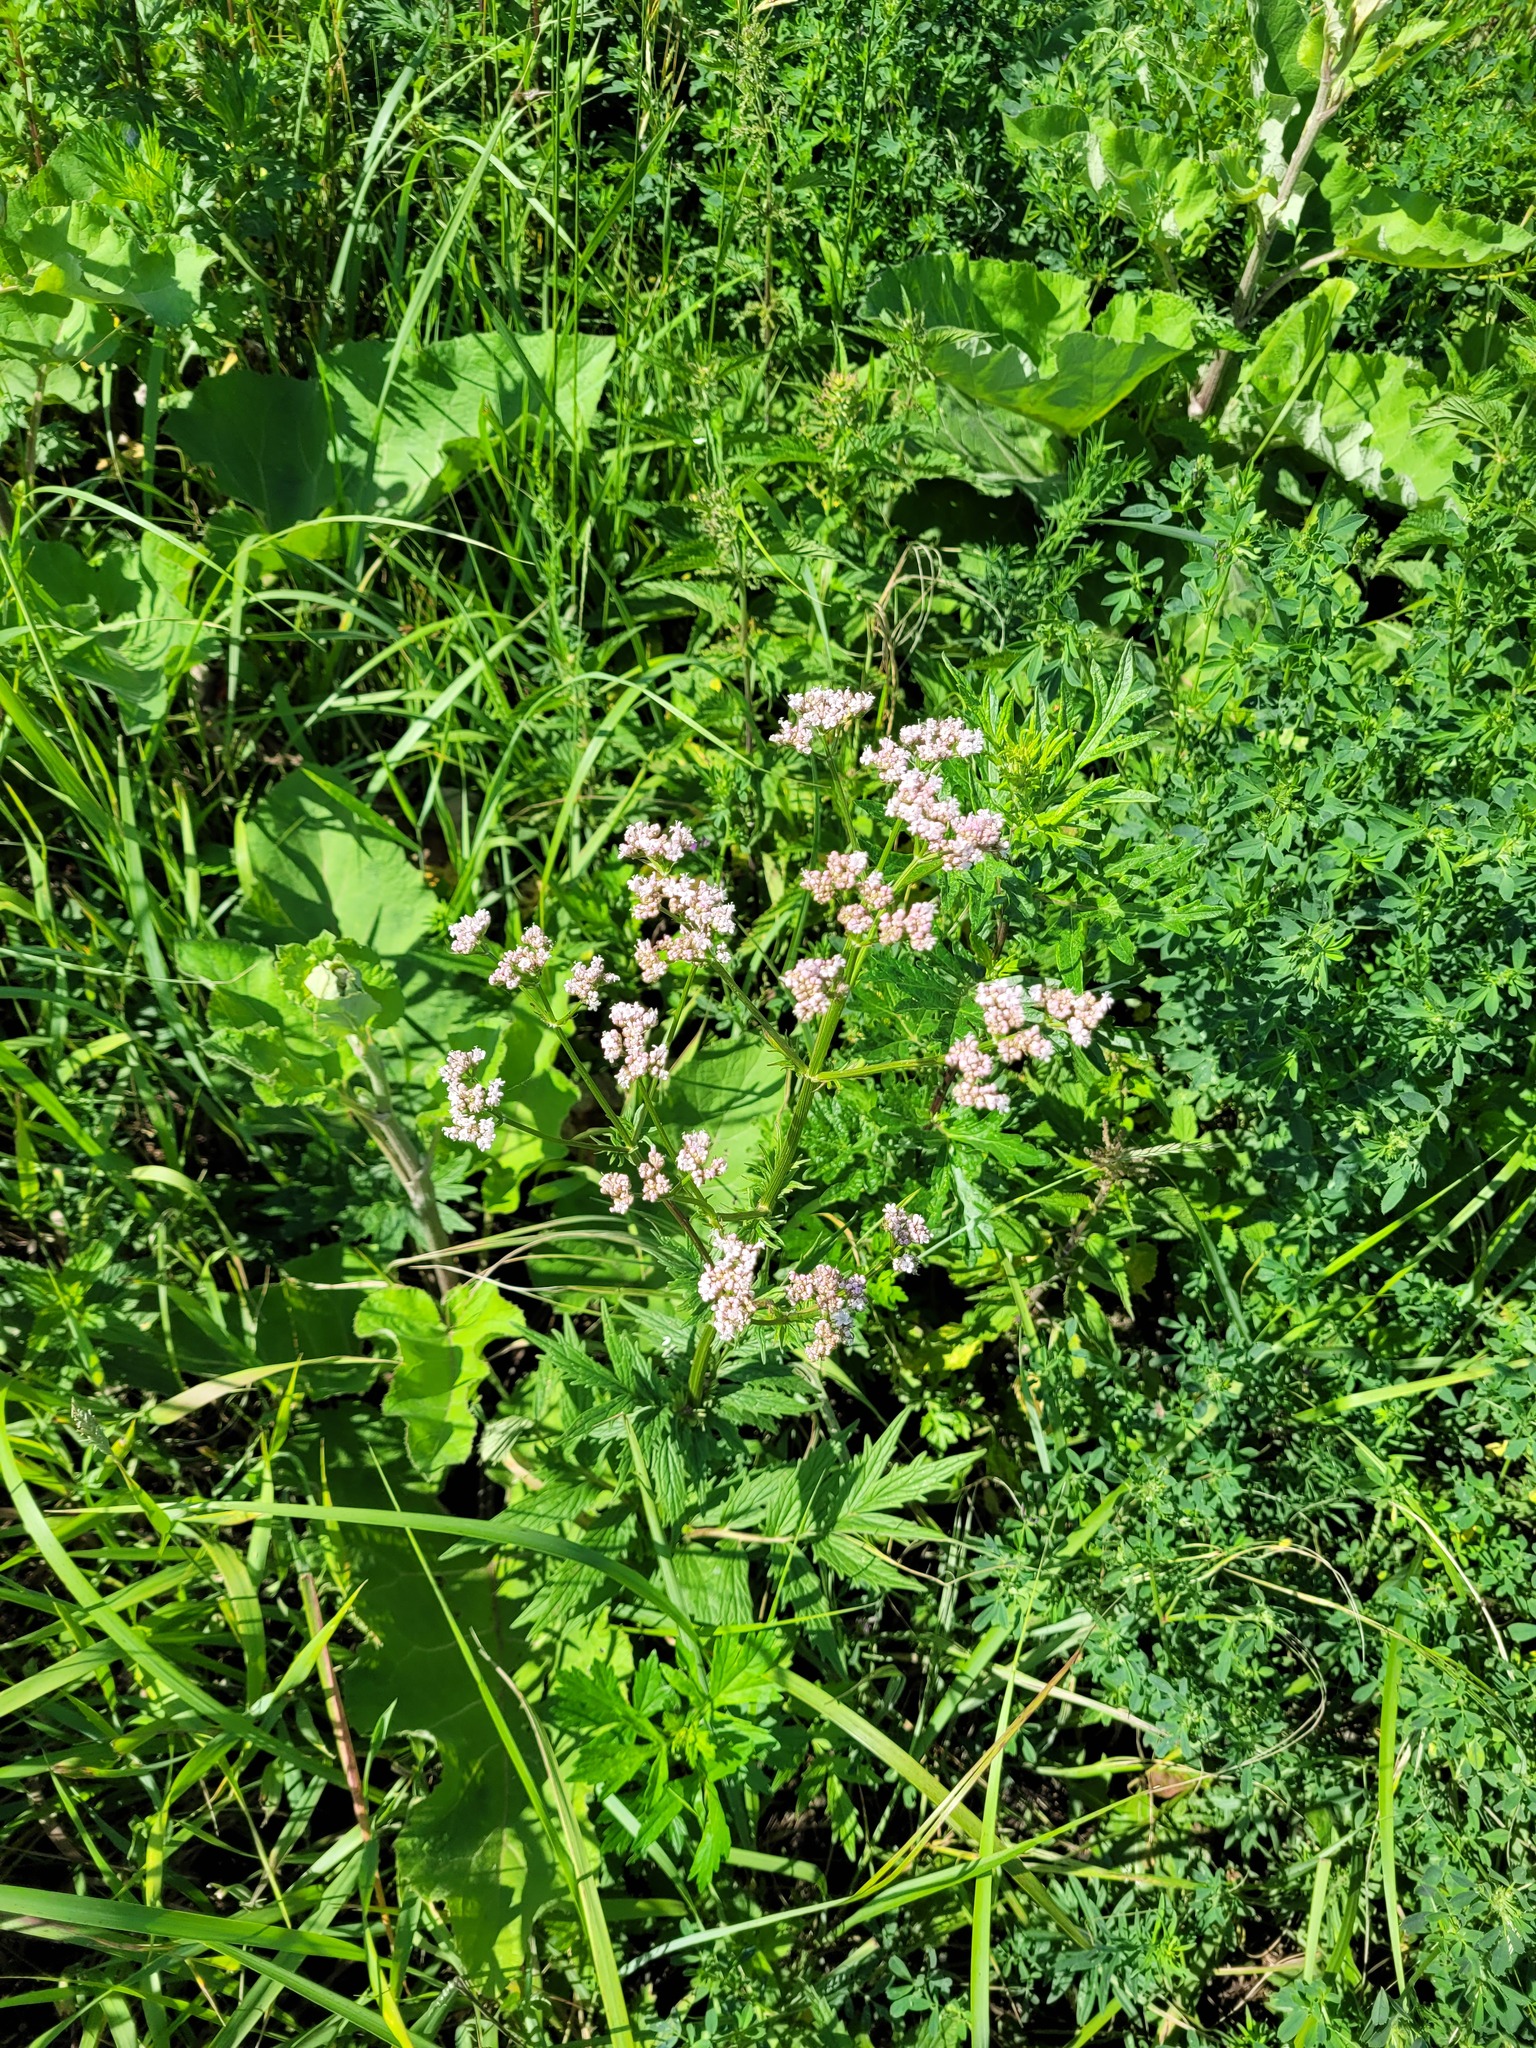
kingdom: Plantae
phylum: Tracheophyta
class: Magnoliopsida
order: Dipsacales
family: Caprifoliaceae
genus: Valeriana
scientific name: Valeriana officinalis
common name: Common valerian
